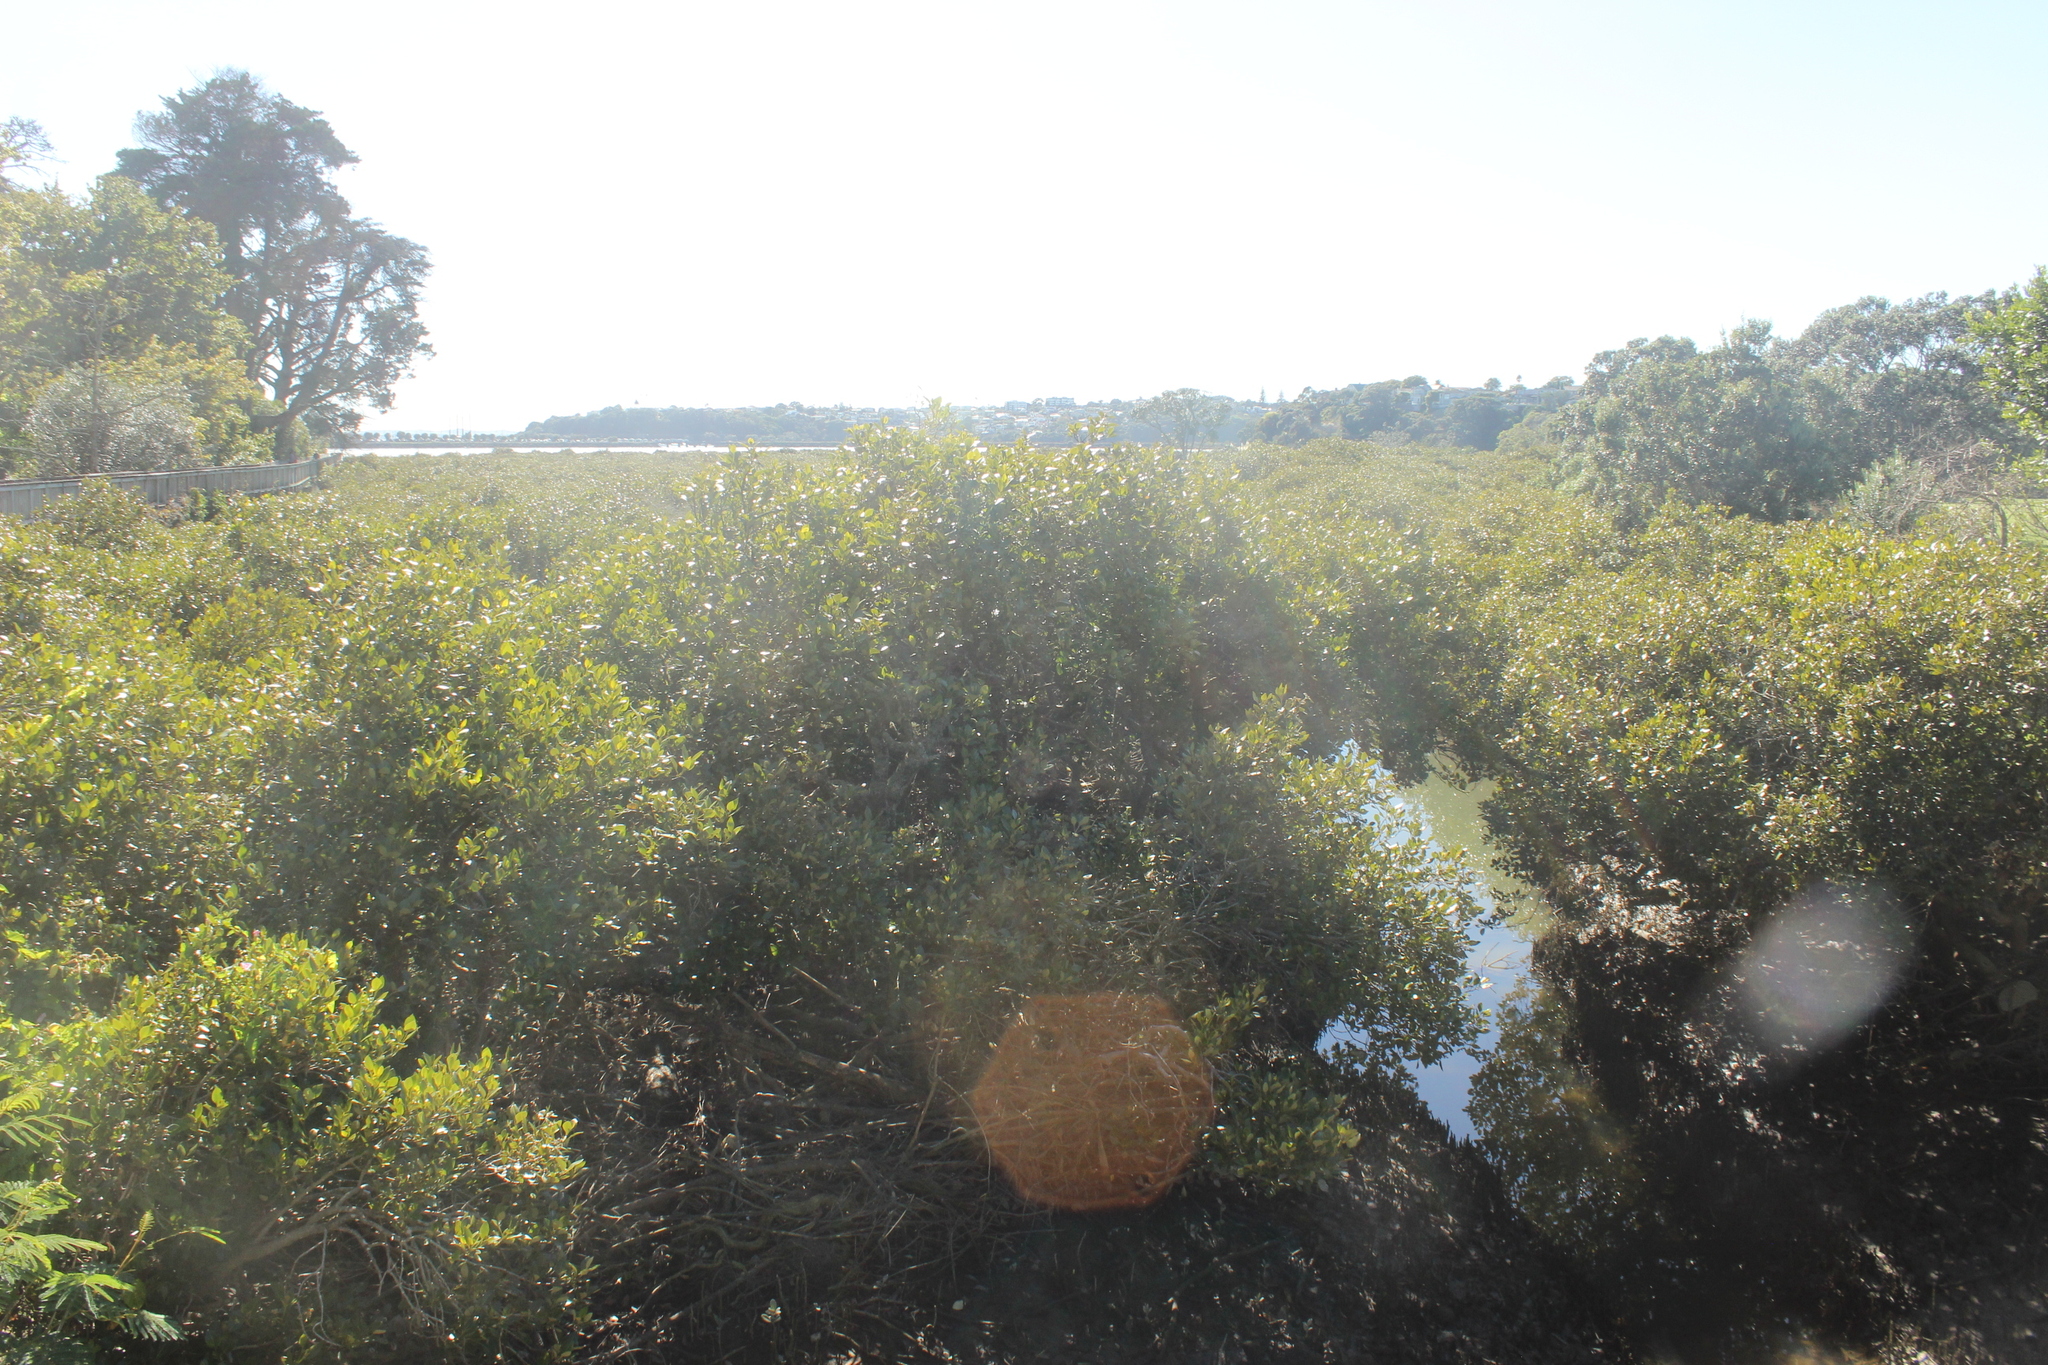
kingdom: Plantae
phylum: Tracheophyta
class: Magnoliopsida
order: Lamiales
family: Acanthaceae
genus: Avicennia
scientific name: Avicennia marina
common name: Gray mangrove
